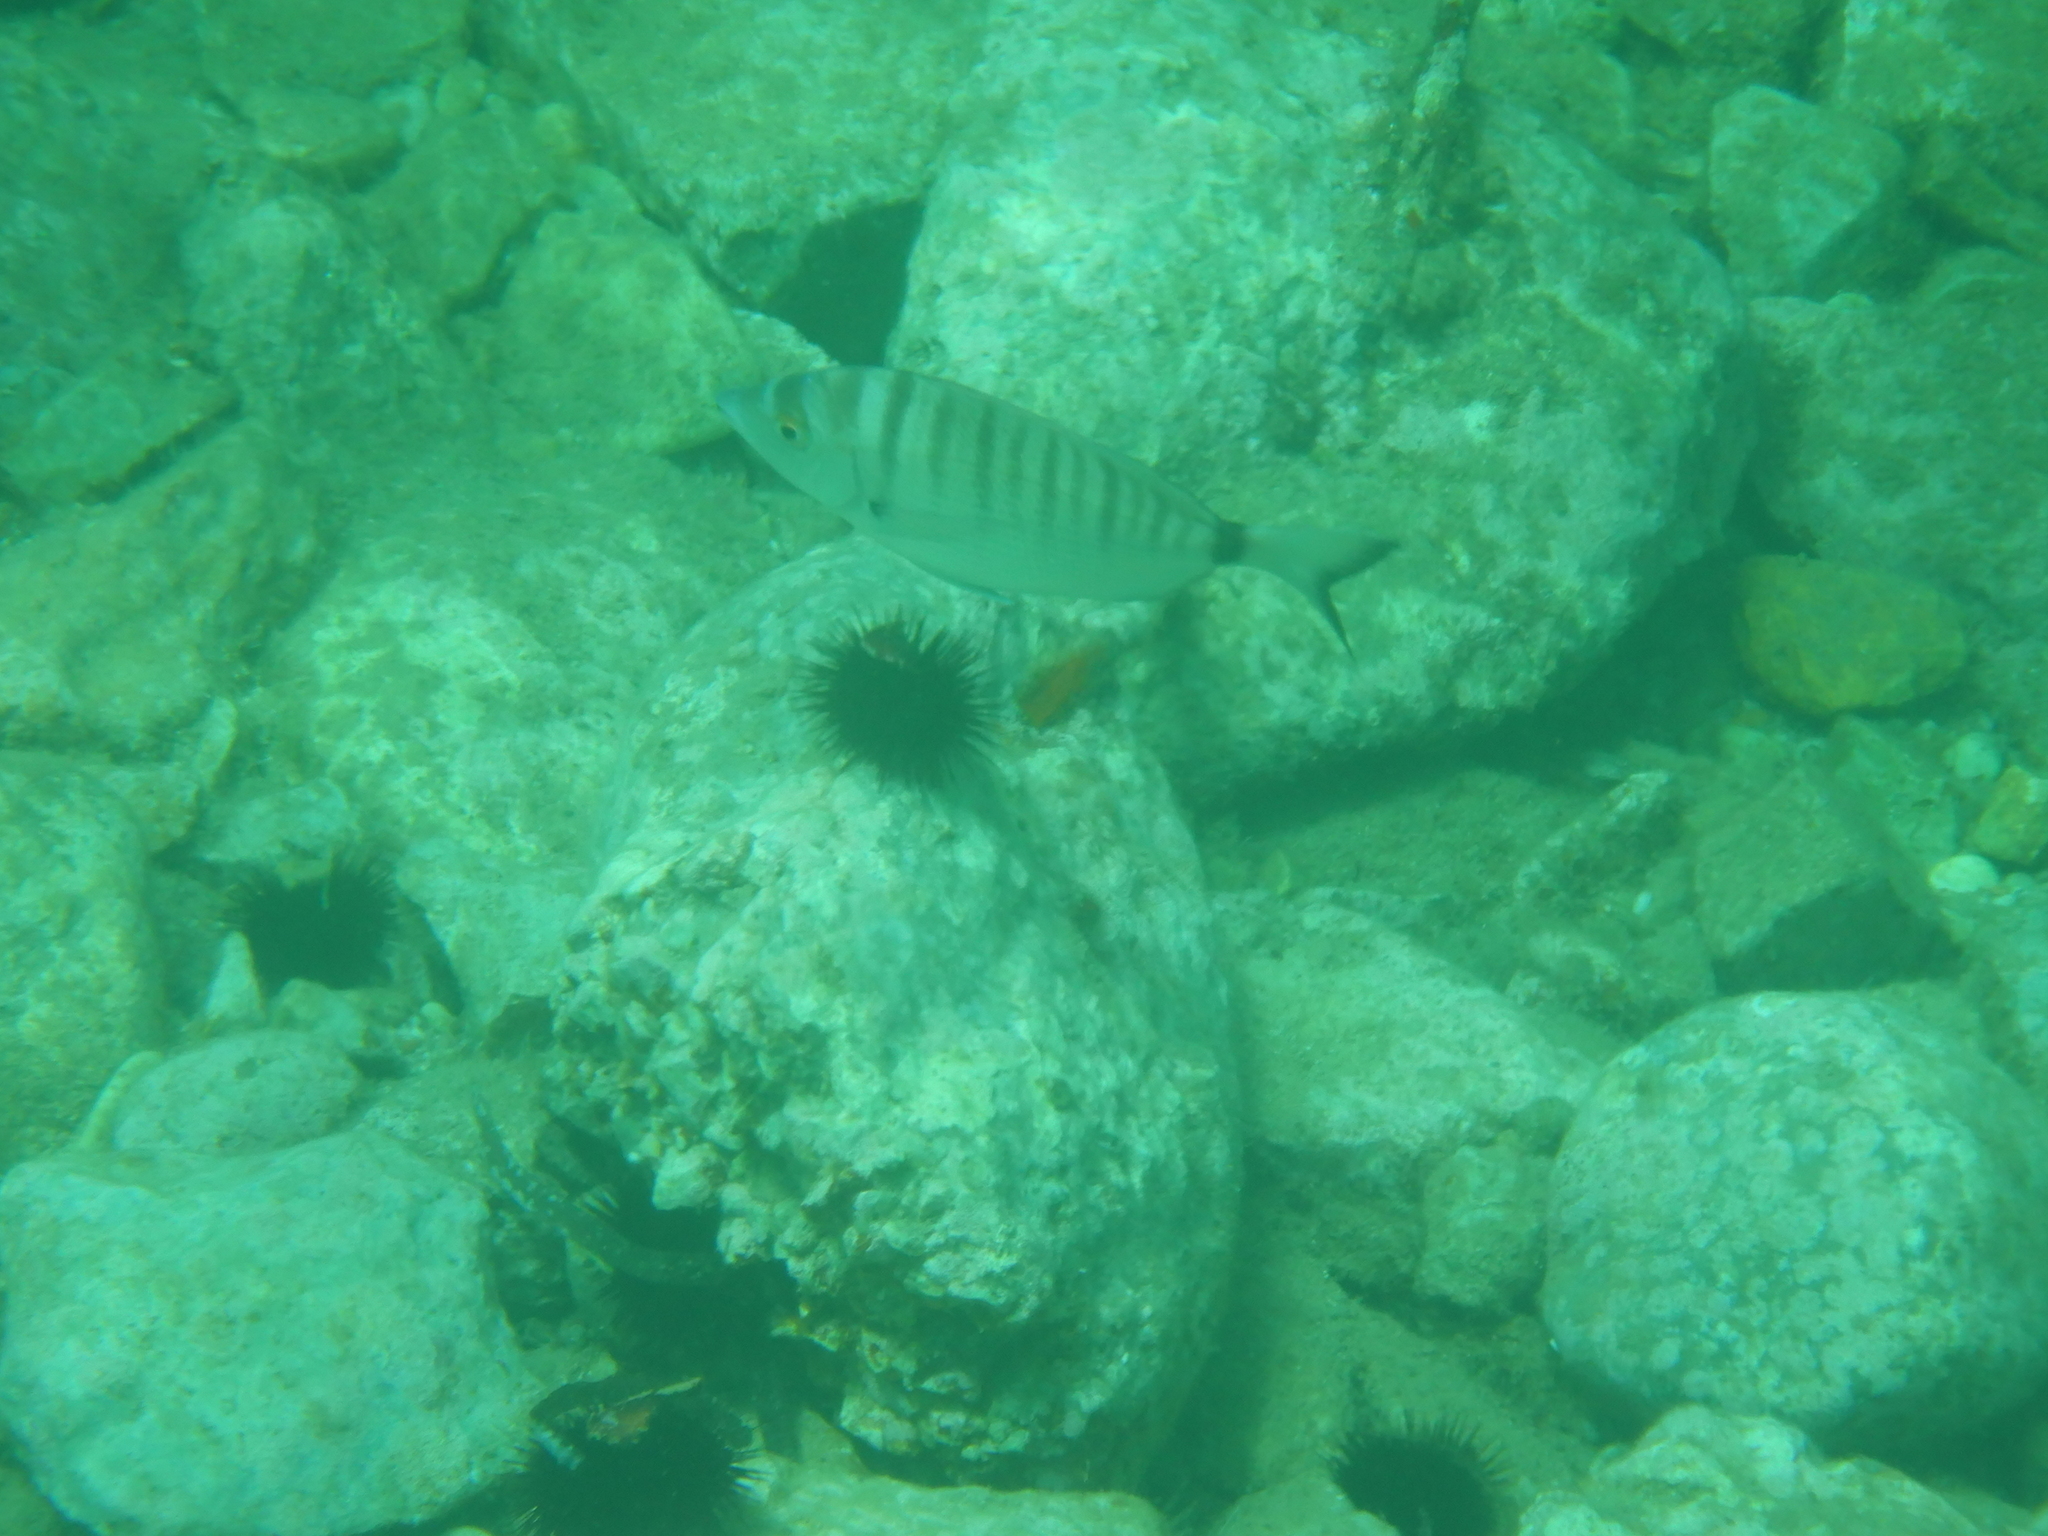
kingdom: Animalia
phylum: Chordata
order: Perciformes
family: Sparidae
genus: Diplodus
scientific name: Diplodus puntazzo
